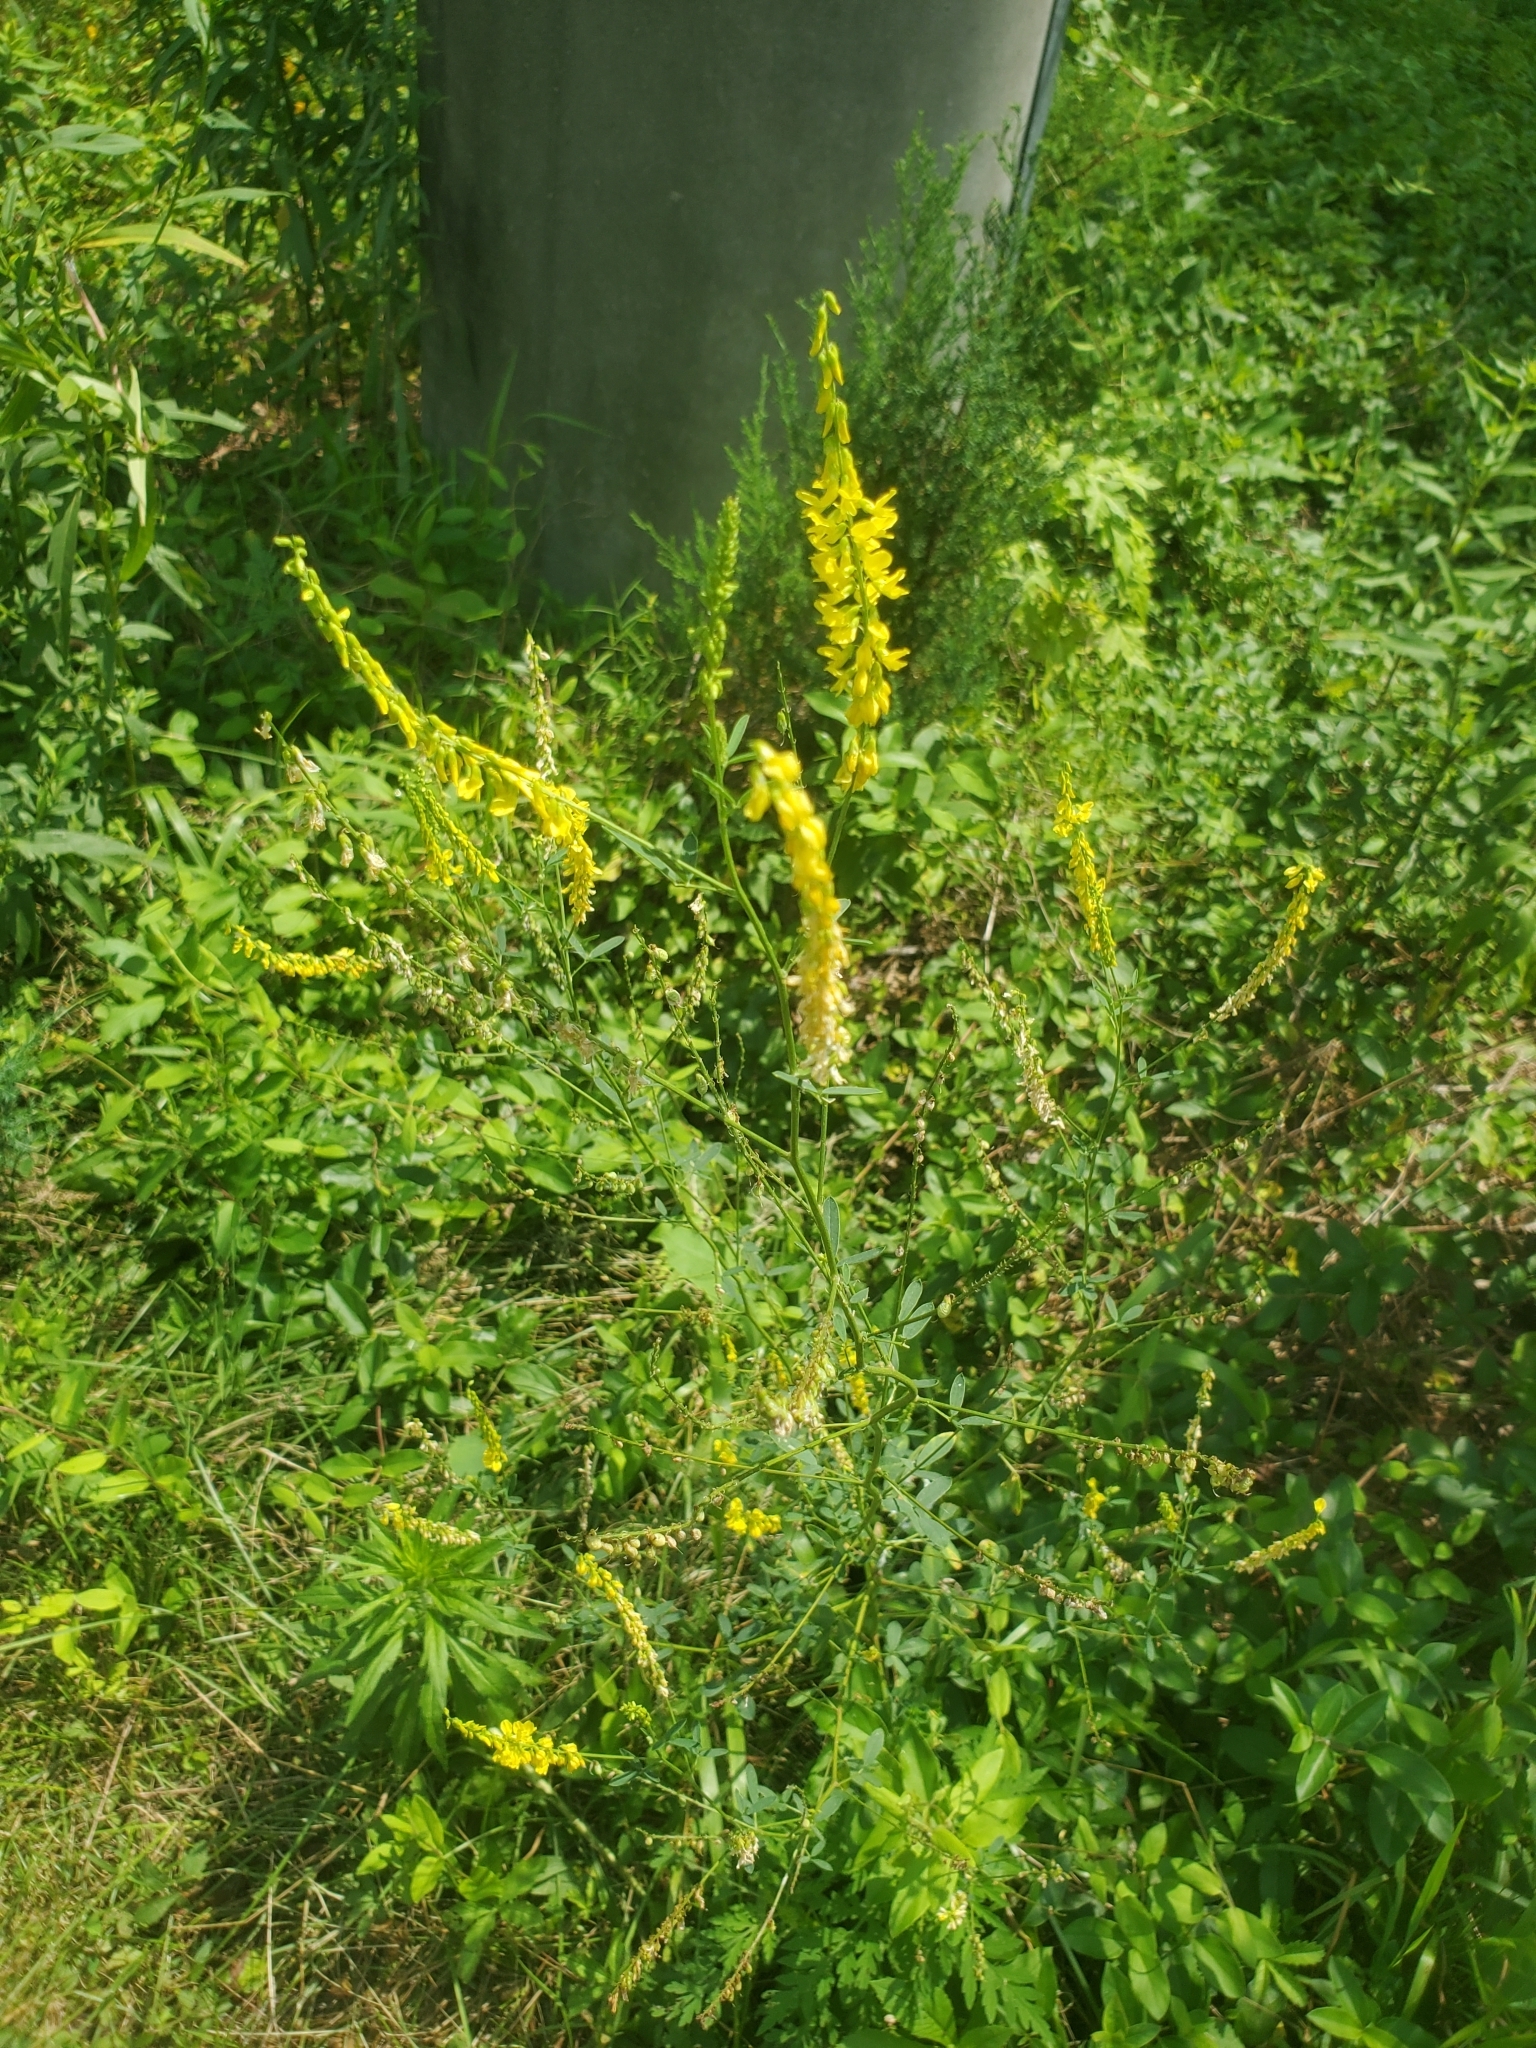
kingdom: Plantae
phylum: Tracheophyta
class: Magnoliopsida
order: Fabales
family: Fabaceae
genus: Melilotus
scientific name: Melilotus officinalis
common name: Sweetclover
